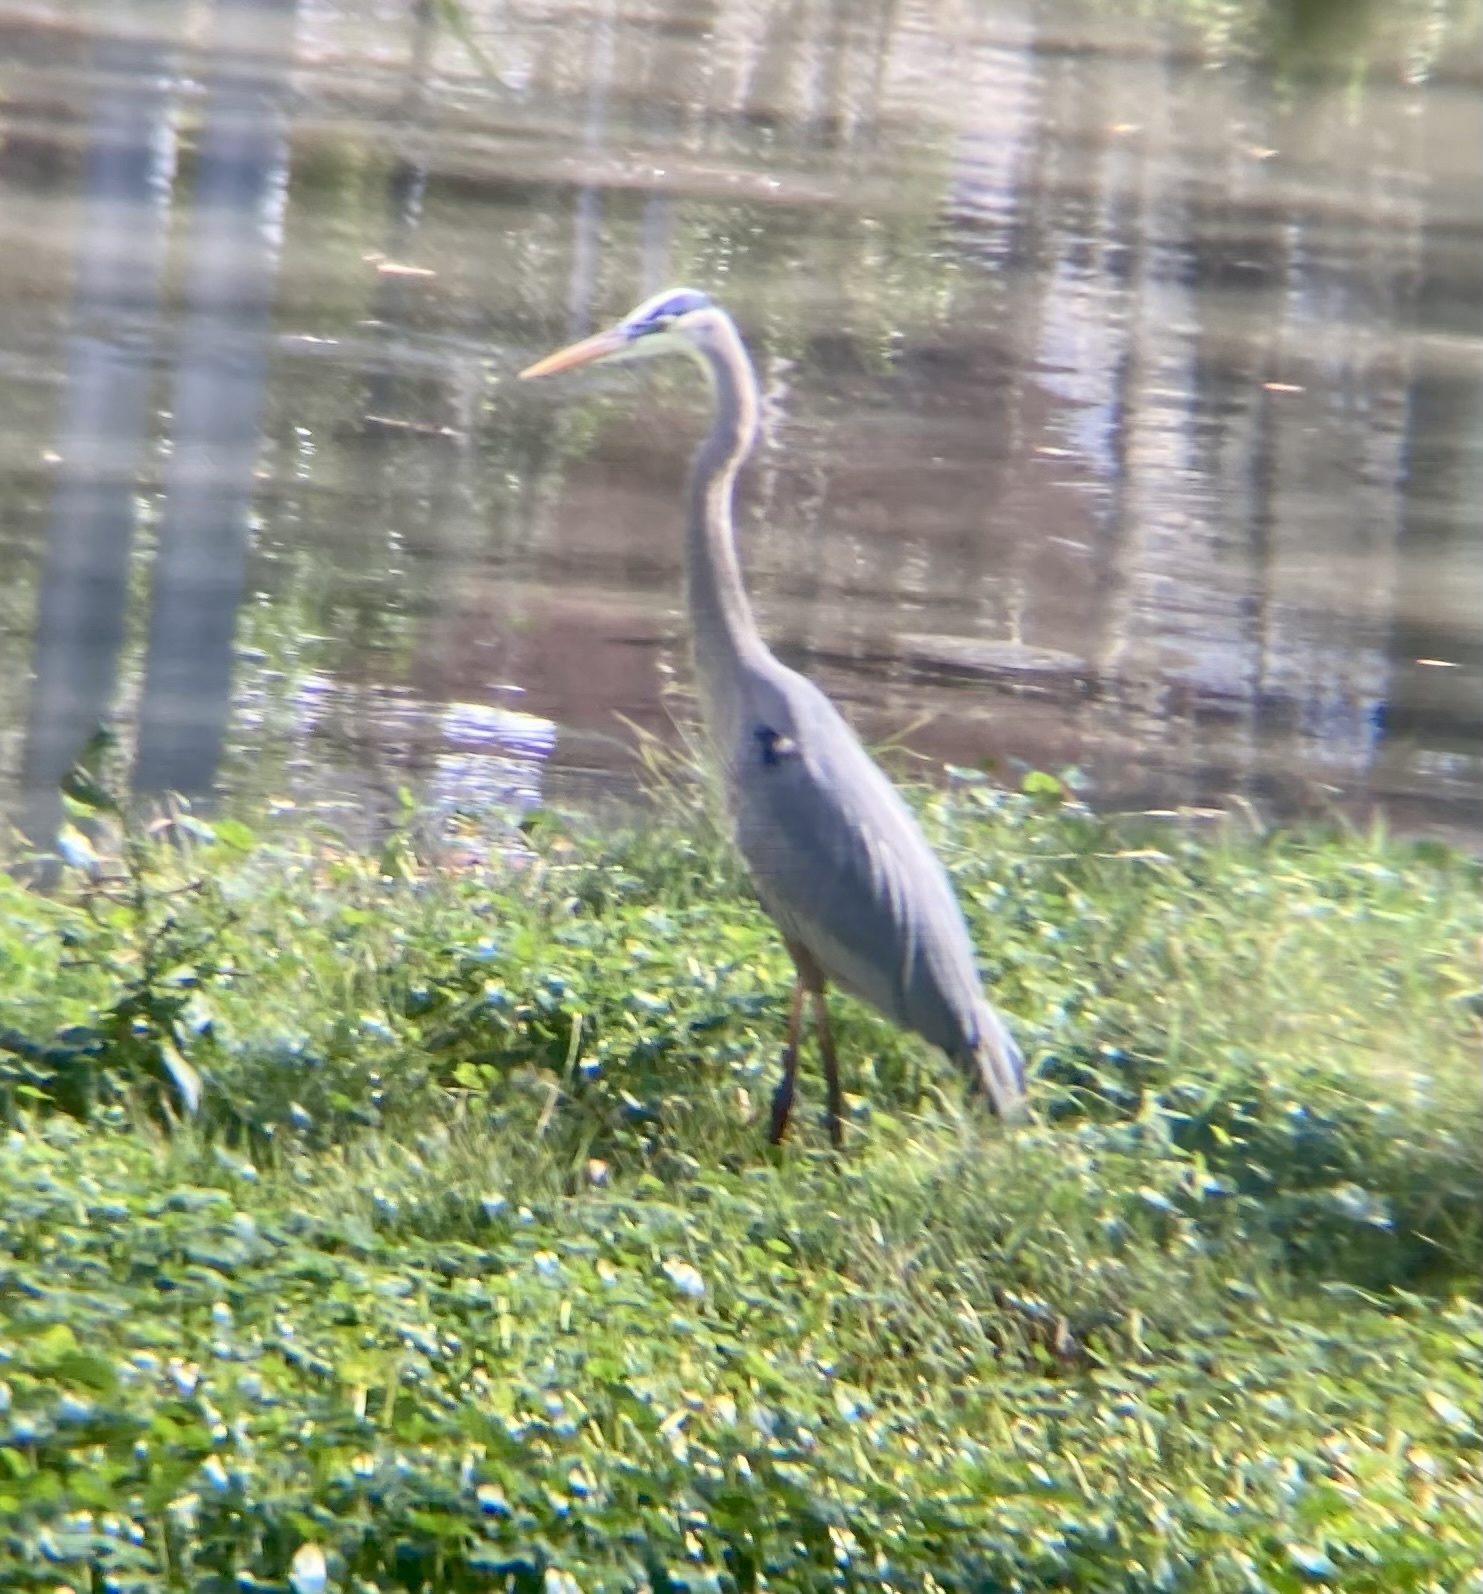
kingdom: Animalia
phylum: Chordata
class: Aves
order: Pelecaniformes
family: Ardeidae
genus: Ardea
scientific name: Ardea herodias
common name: Great blue heron
